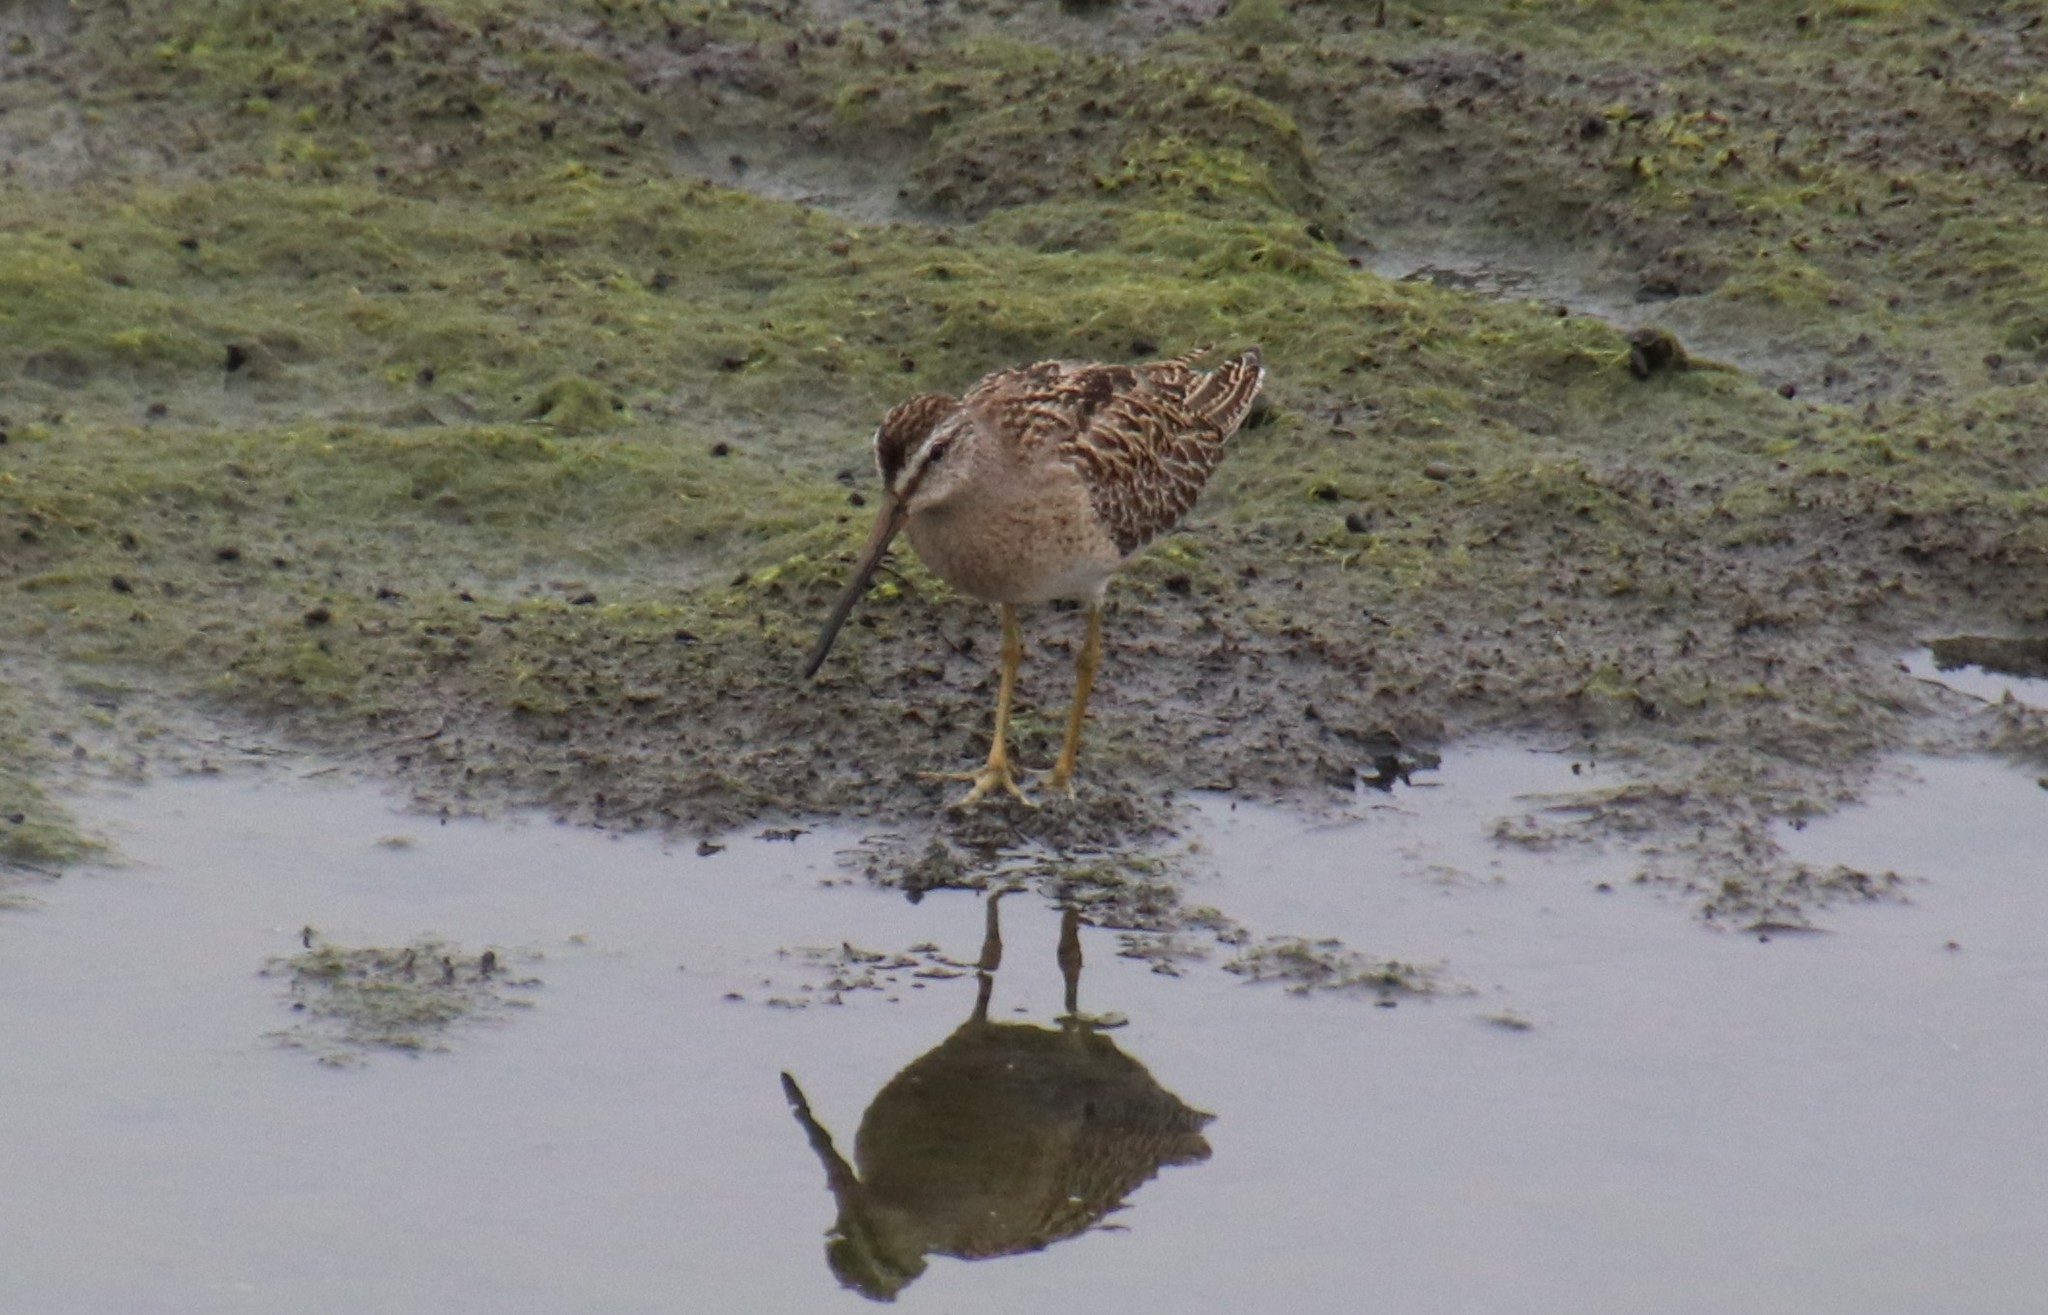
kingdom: Animalia
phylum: Chordata
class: Aves
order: Charadriiformes
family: Scolopacidae
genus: Limnodromus
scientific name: Limnodromus griseus
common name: Short-billed dowitcher
